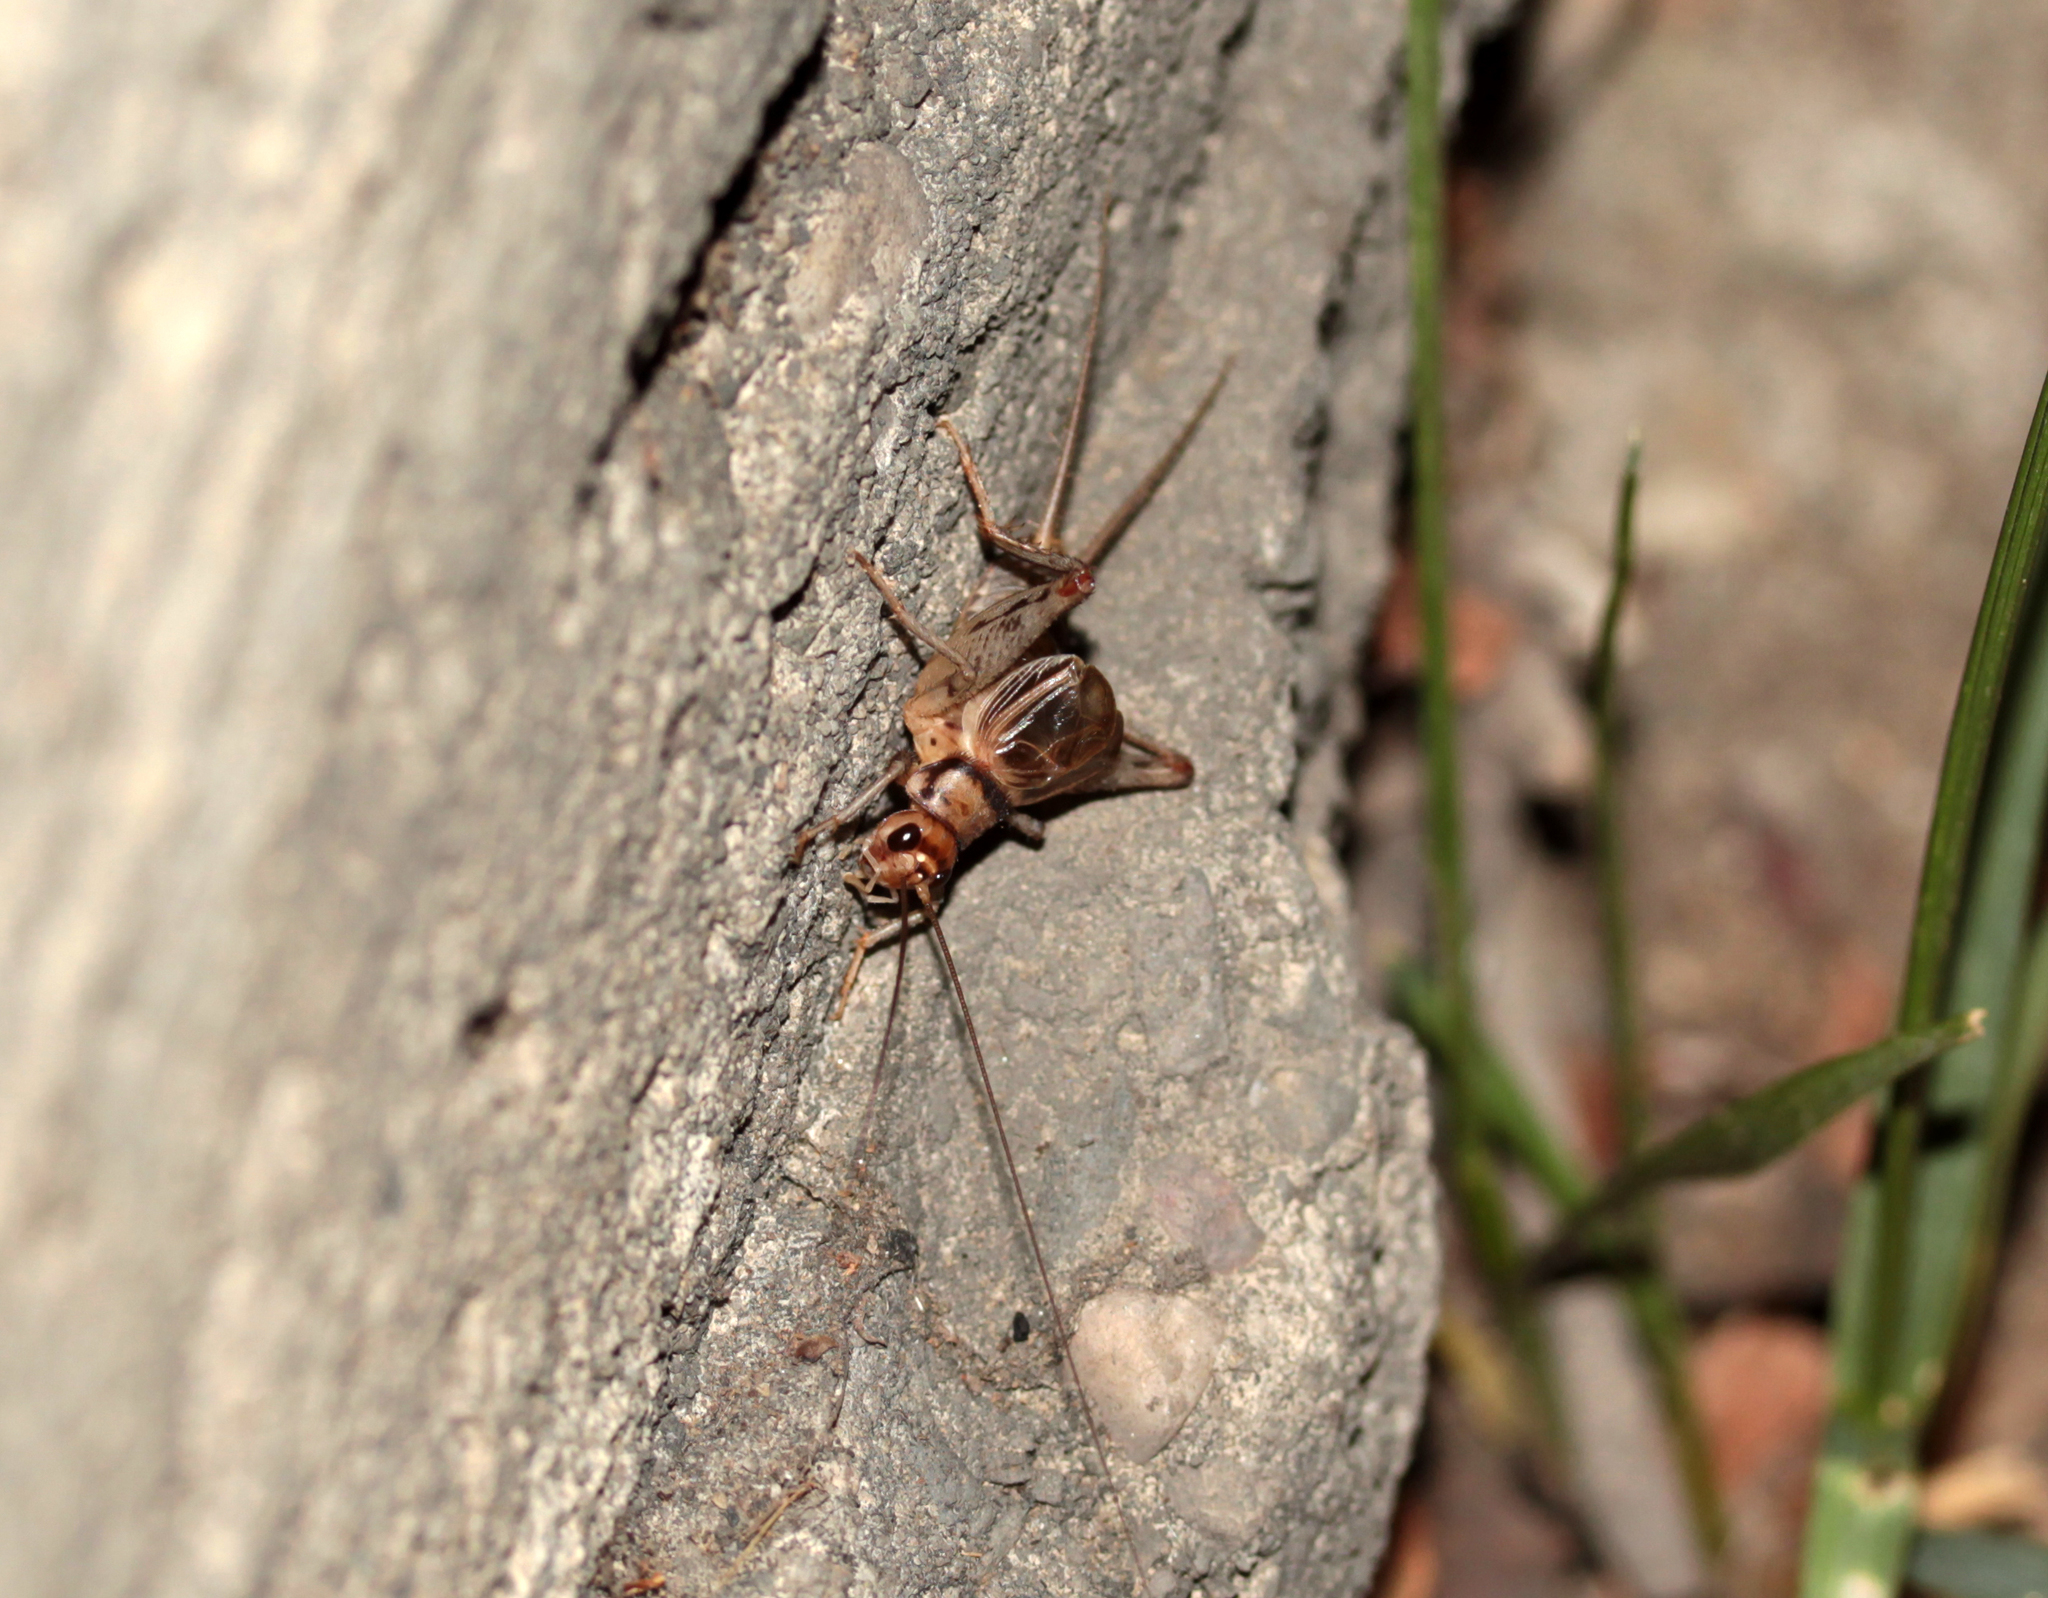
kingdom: Animalia
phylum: Arthropoda
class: Insecta
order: Orthoptera
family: Gryllidae
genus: Gryllodes
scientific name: Gryllodes sigillatus
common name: Tropical house cricket
